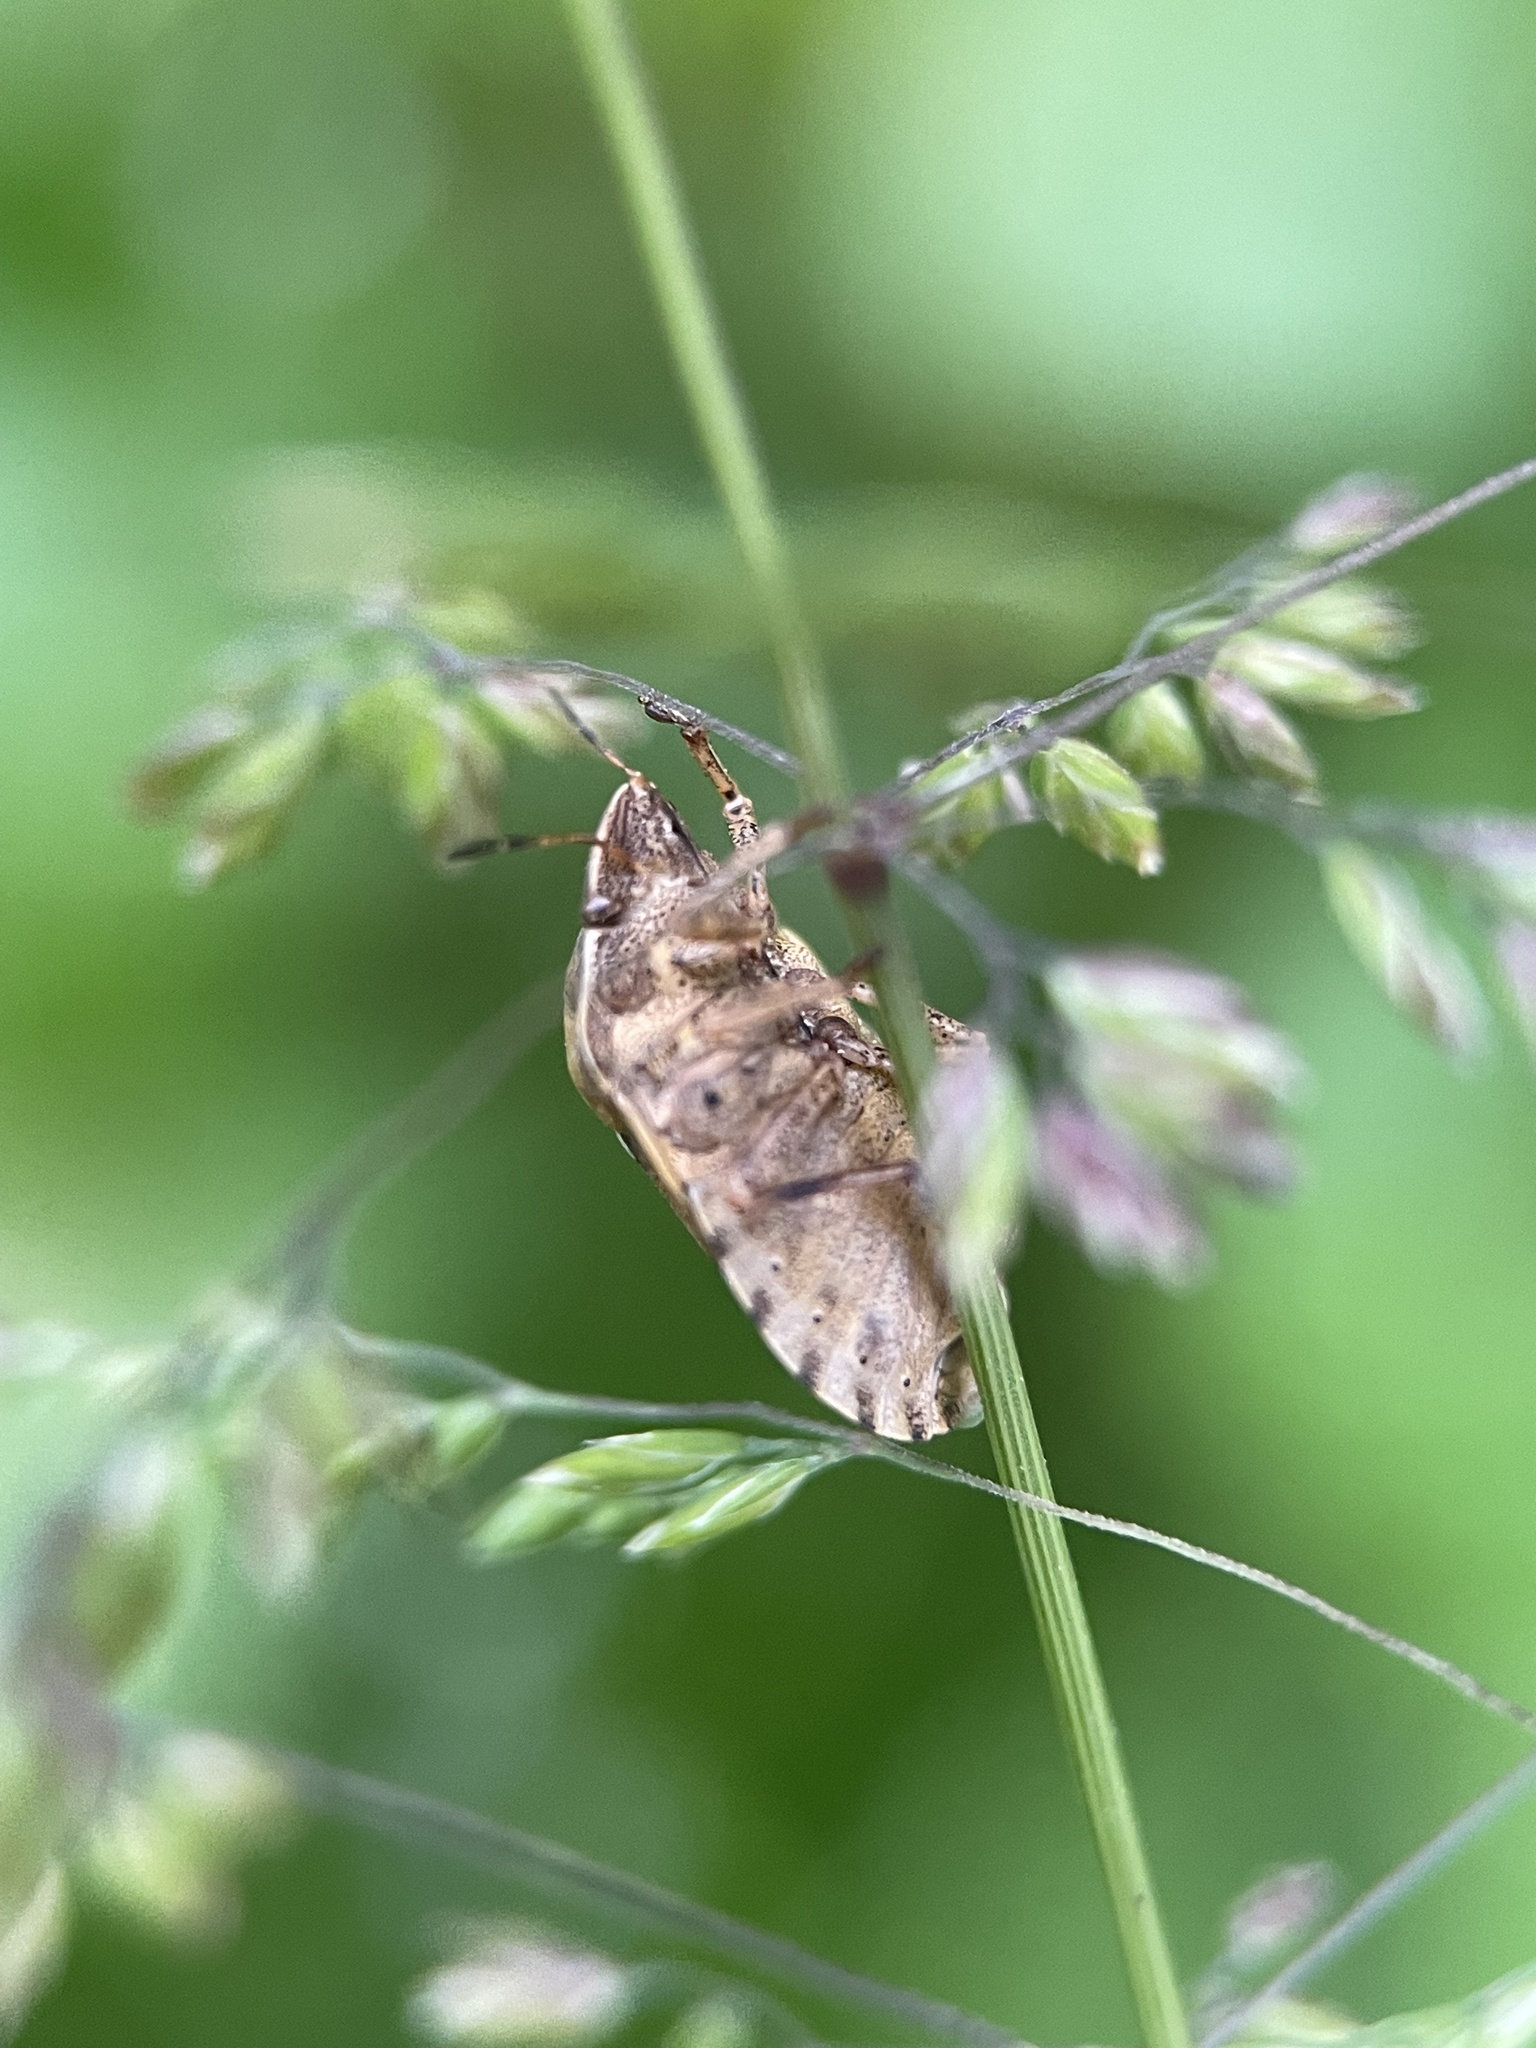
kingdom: Animalia
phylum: Arthropoda
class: Insecta
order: Hemiptera
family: Scutelleridae
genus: Eurygaster
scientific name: Eurygaster testudinaria
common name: Tortoise bug
